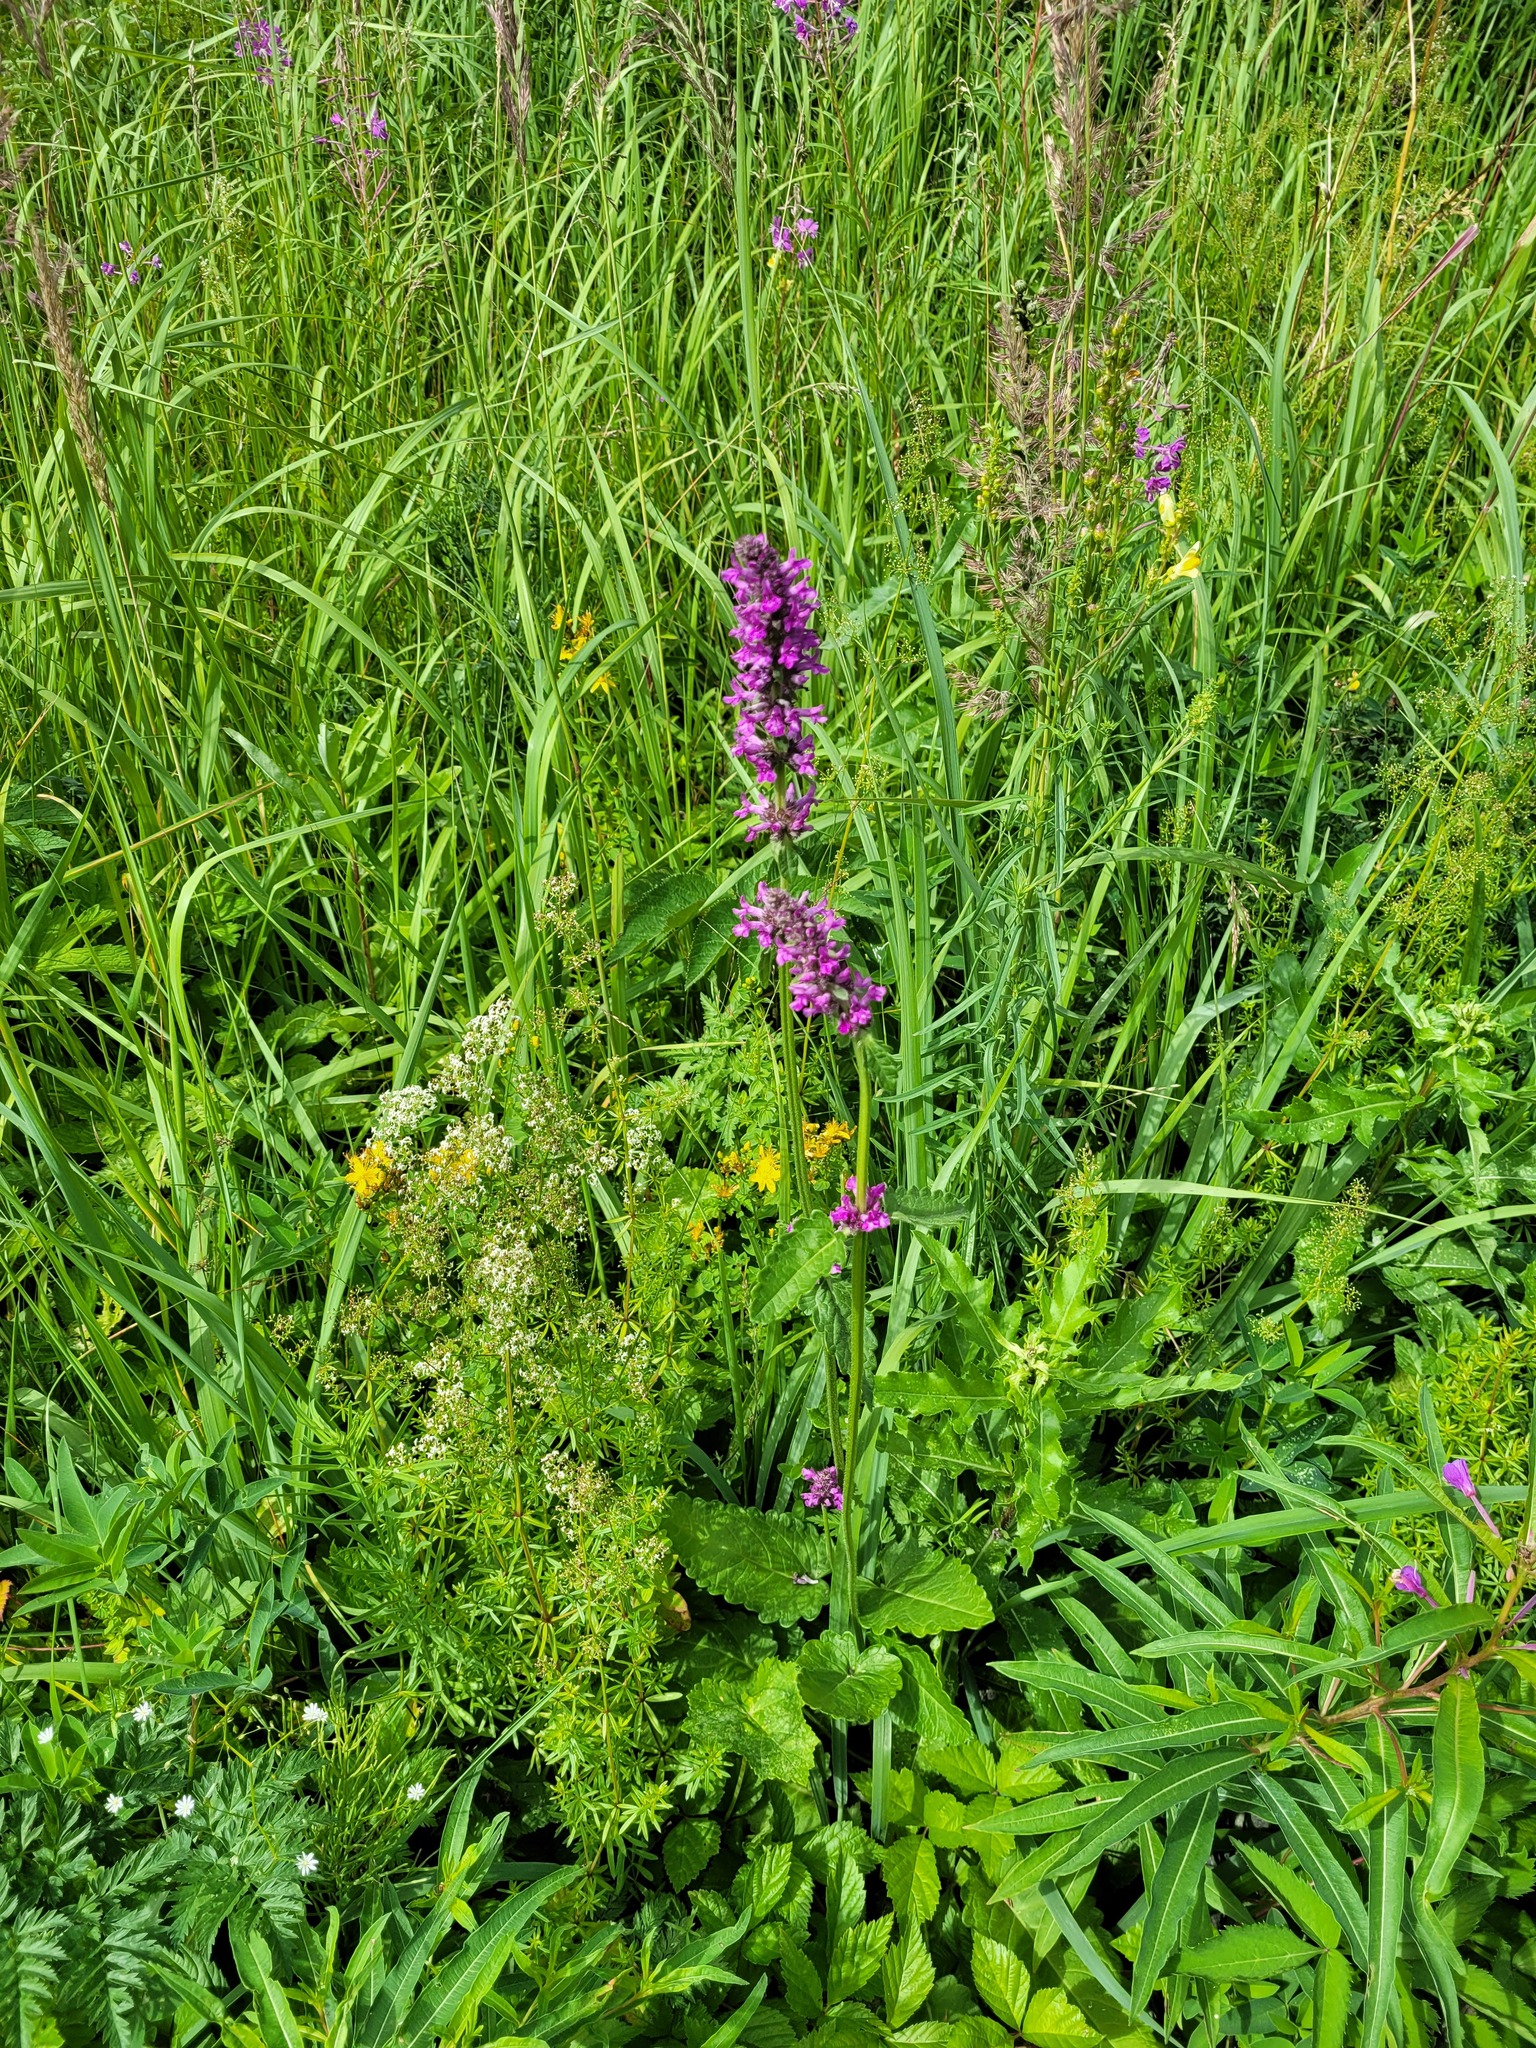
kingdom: Plantae
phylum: Tracheophyta
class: Magnoliopsida
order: Lamiales
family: Lamiaceae
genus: Betonica
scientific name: Betonica officinalis
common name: Bishop's-wort
